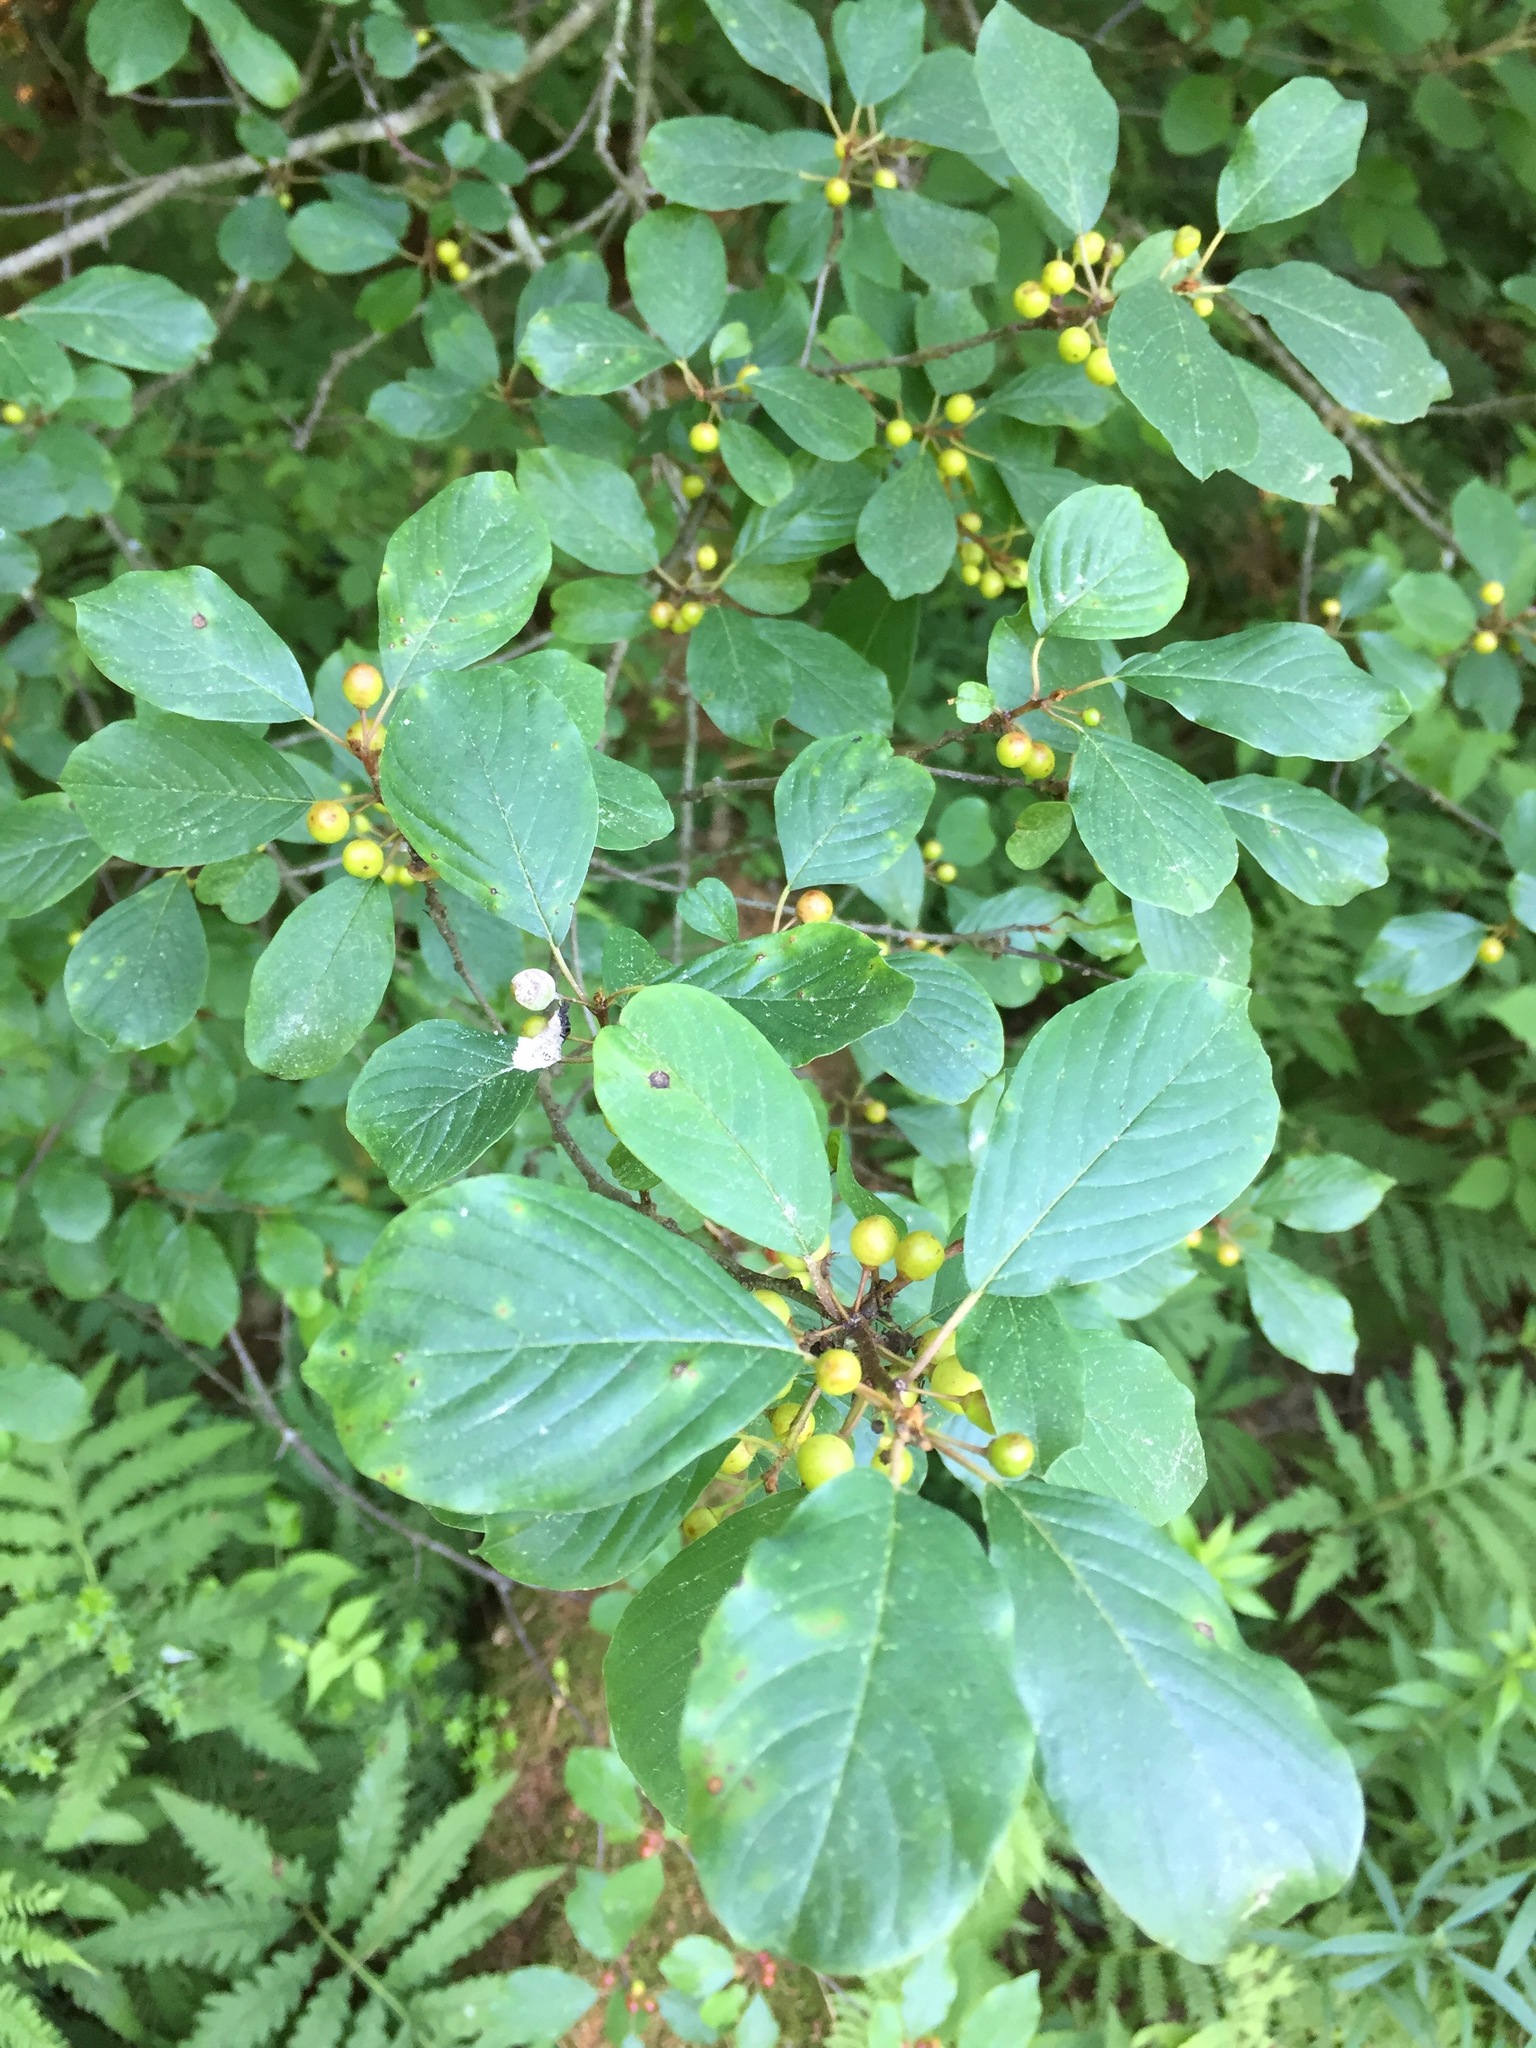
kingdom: Plantae
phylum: Tracheophyta
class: Magnoliopsida
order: Rosales
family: Rhamnaceae
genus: Frangula
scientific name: Frangula alnus
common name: Alder buckthorn
